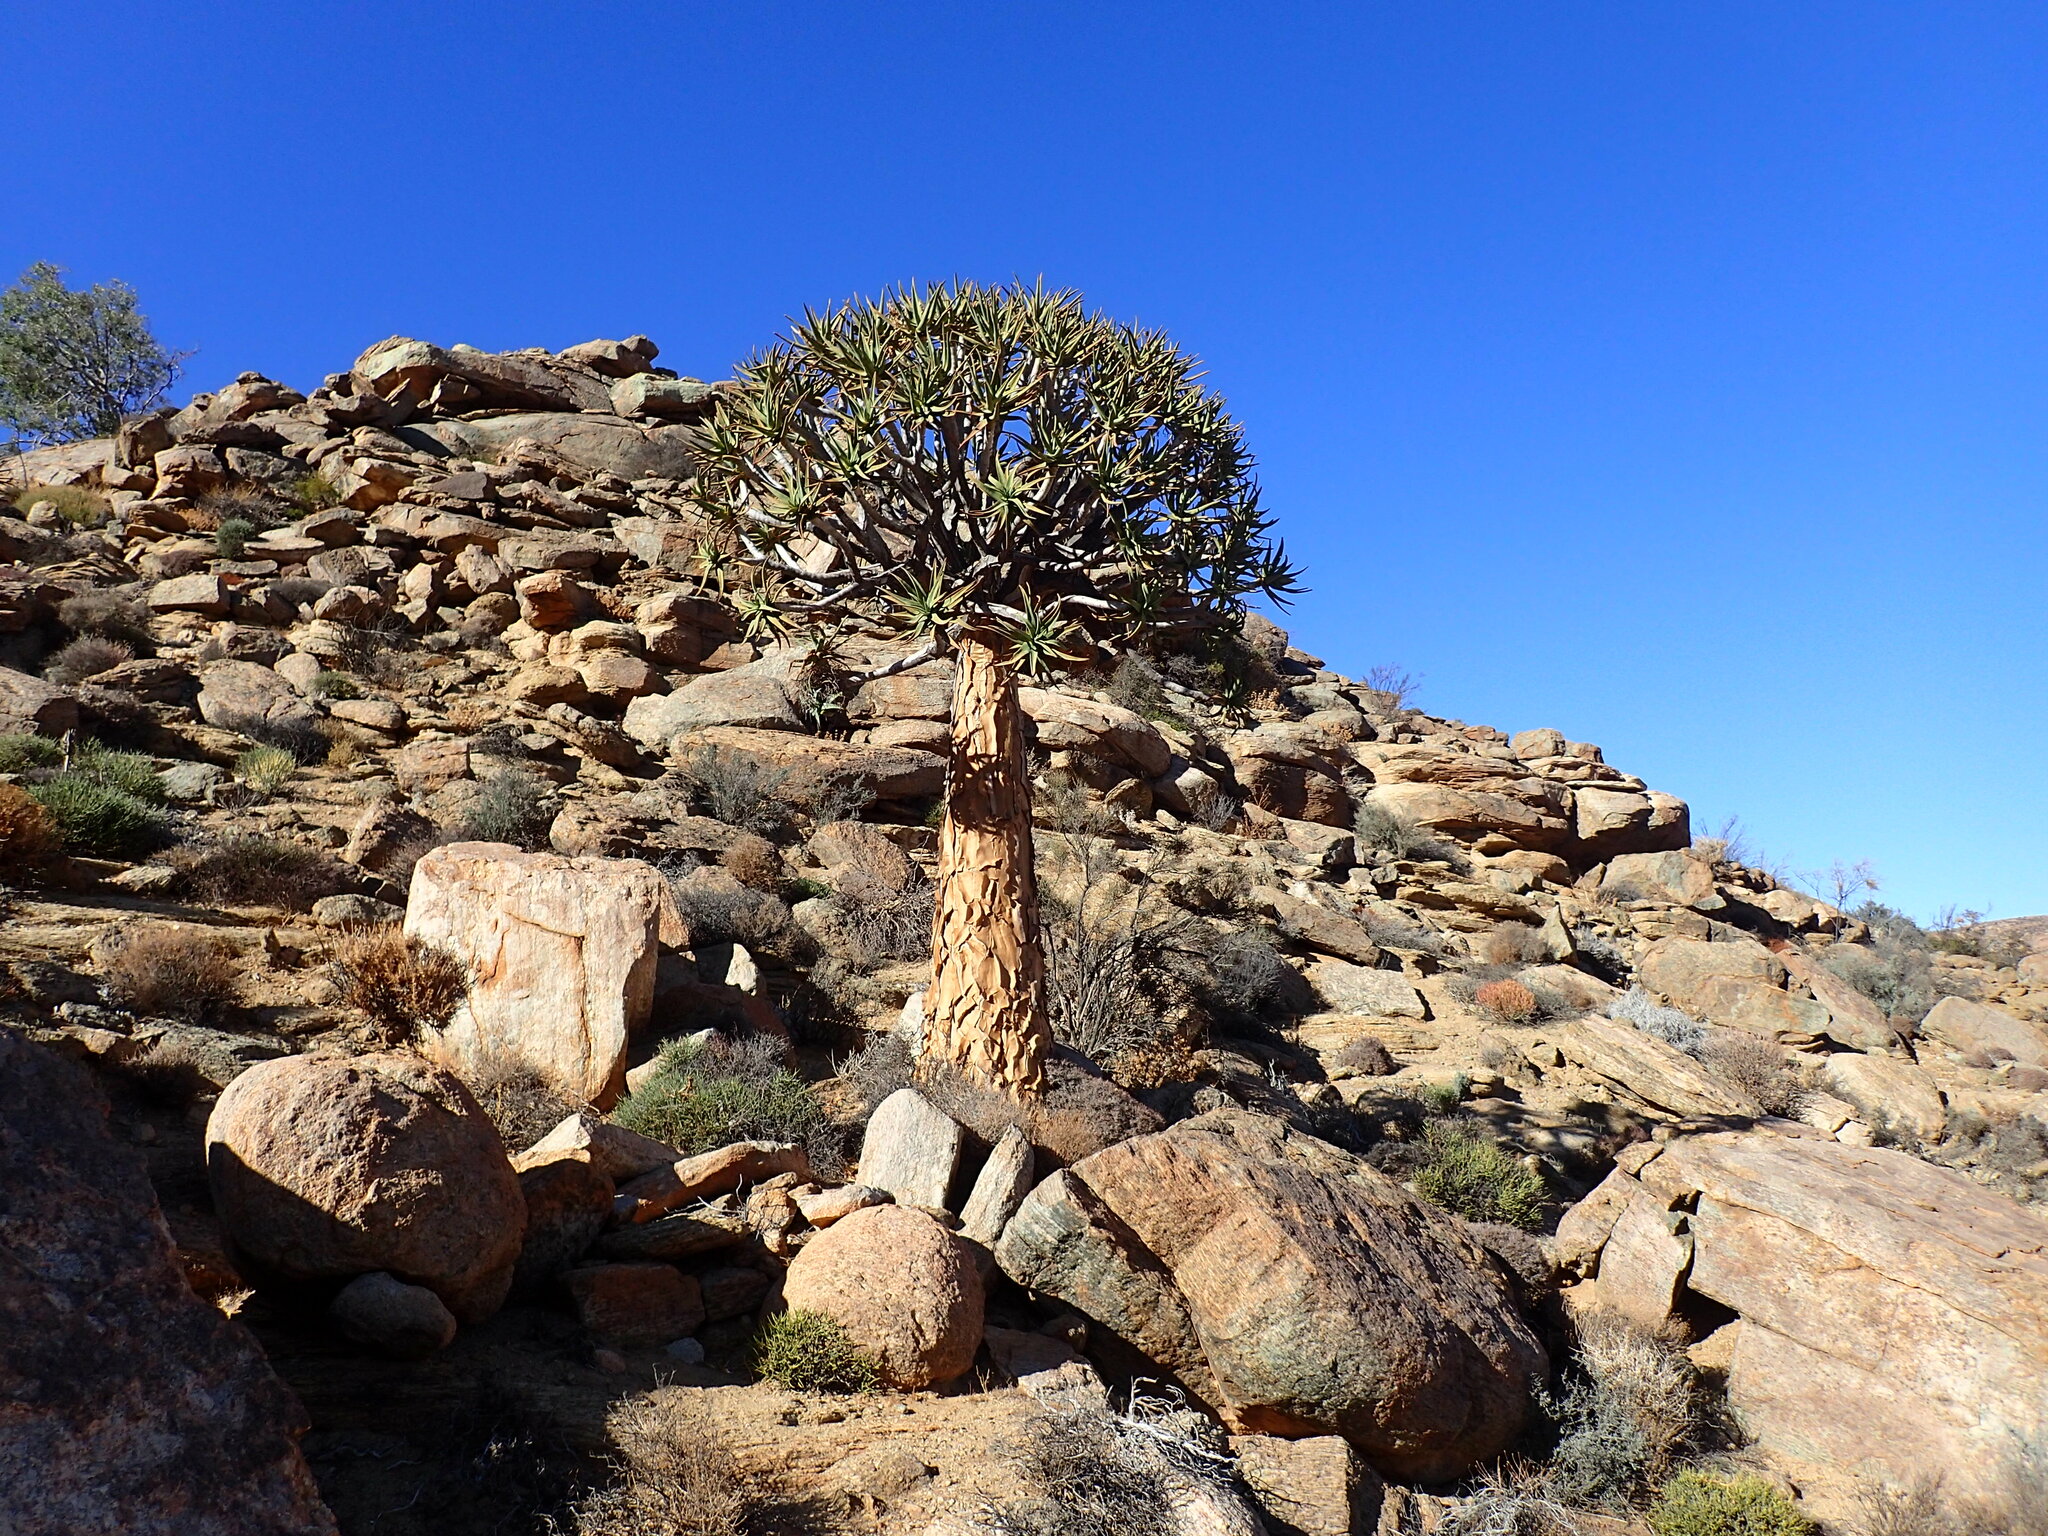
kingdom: Plantae
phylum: Tracheophyta
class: Liliopsida
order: Asparagales
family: Asphodelaceae
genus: Aloidendron
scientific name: Aloidendron dichotomum
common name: Quiver tree
